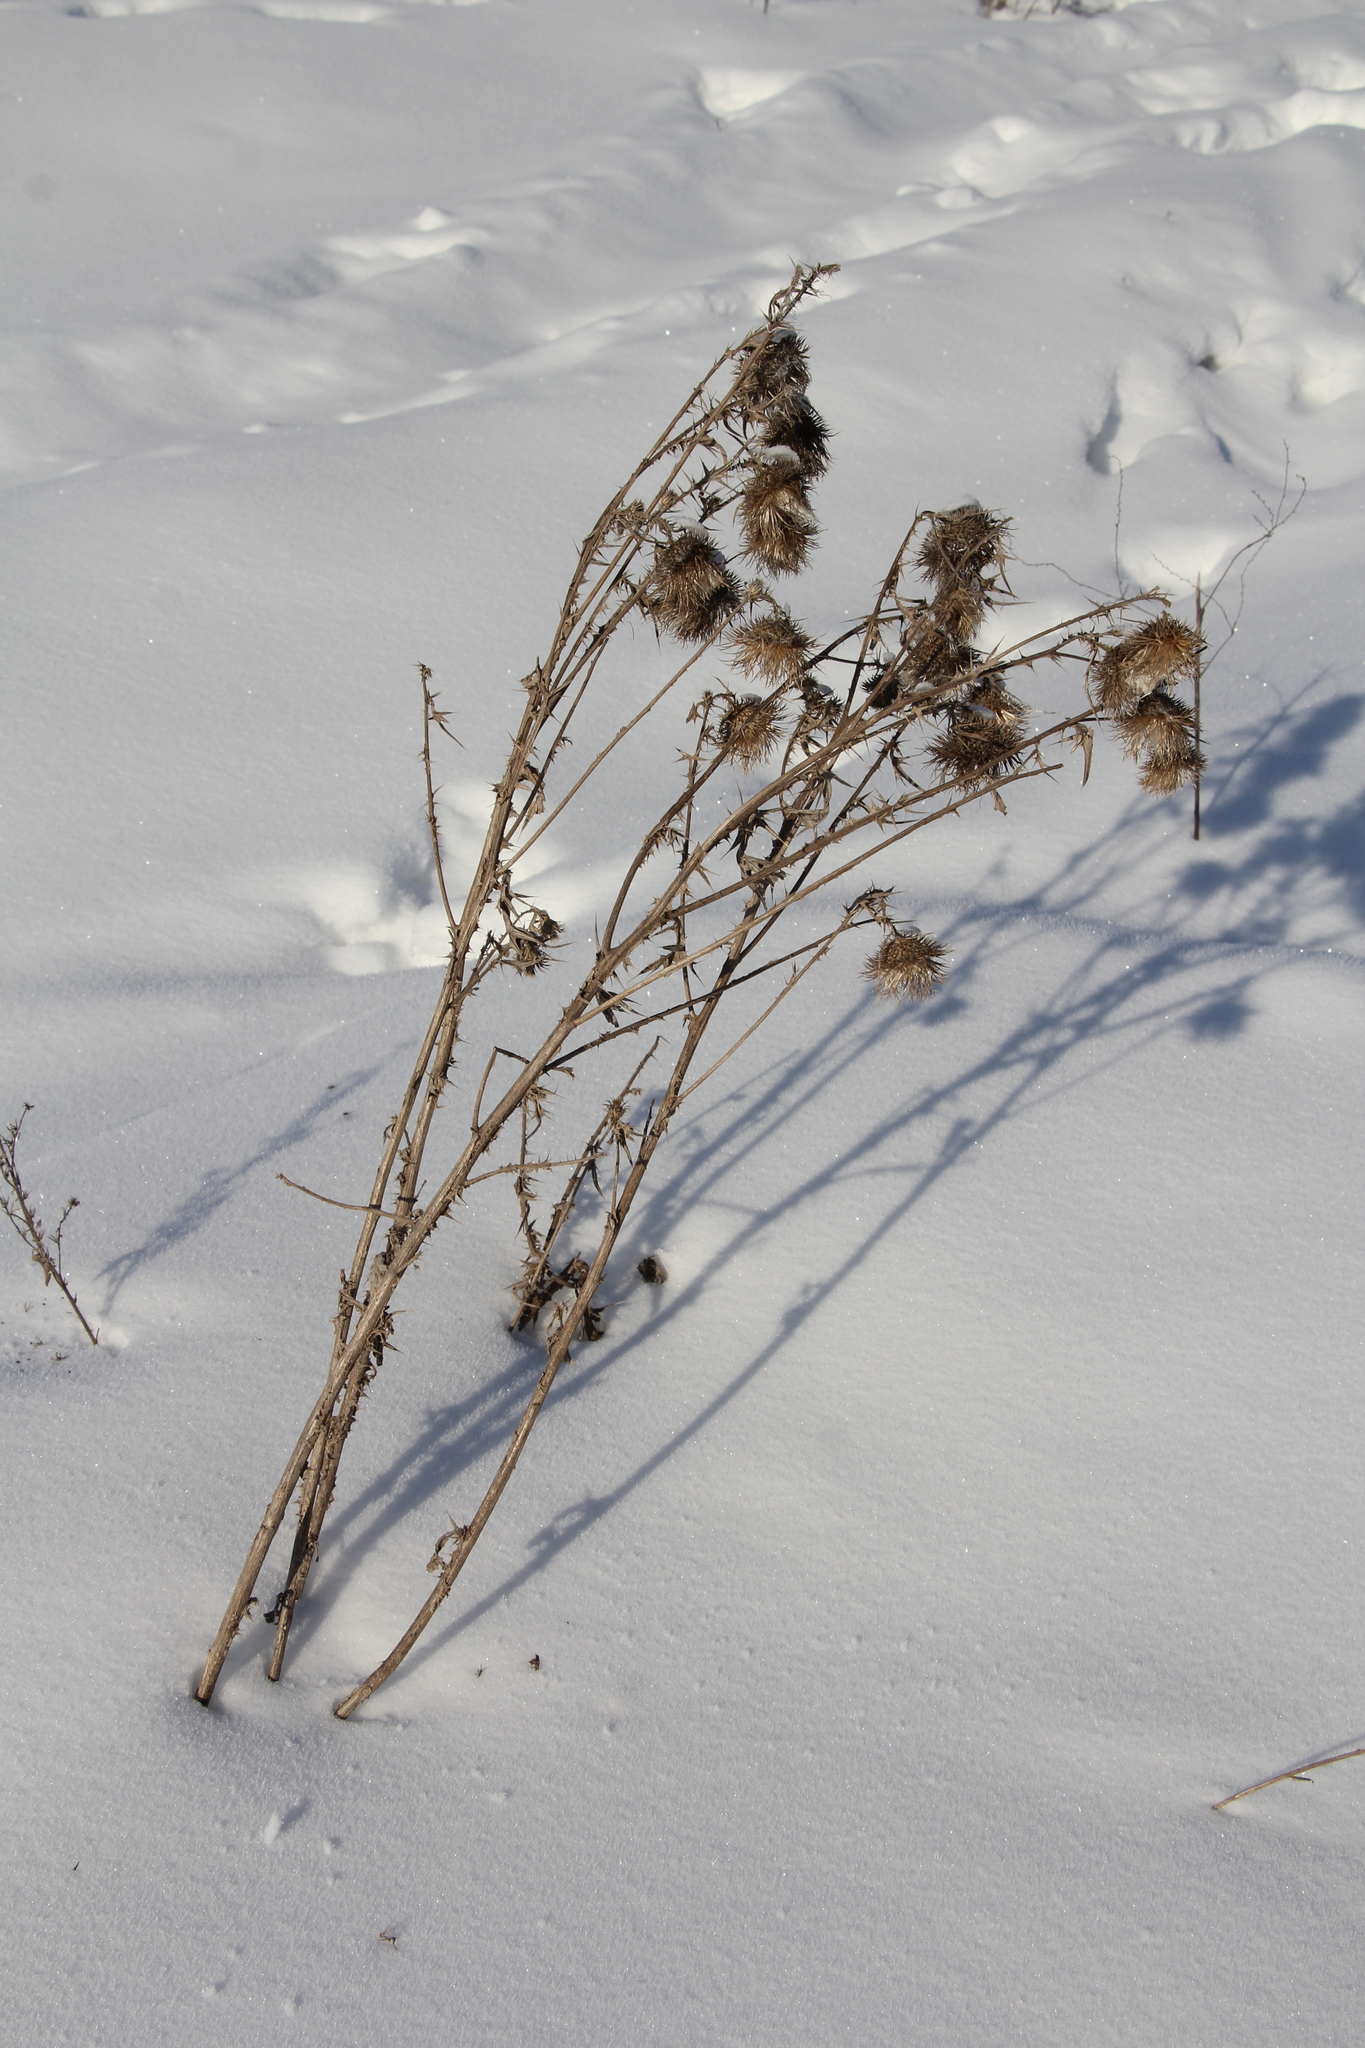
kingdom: Plantae
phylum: Tracheophyta
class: Magnoliopsida
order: Asterales
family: Asteraceae
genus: Cirsium
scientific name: Cirsium vulgare
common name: Bull thistle
